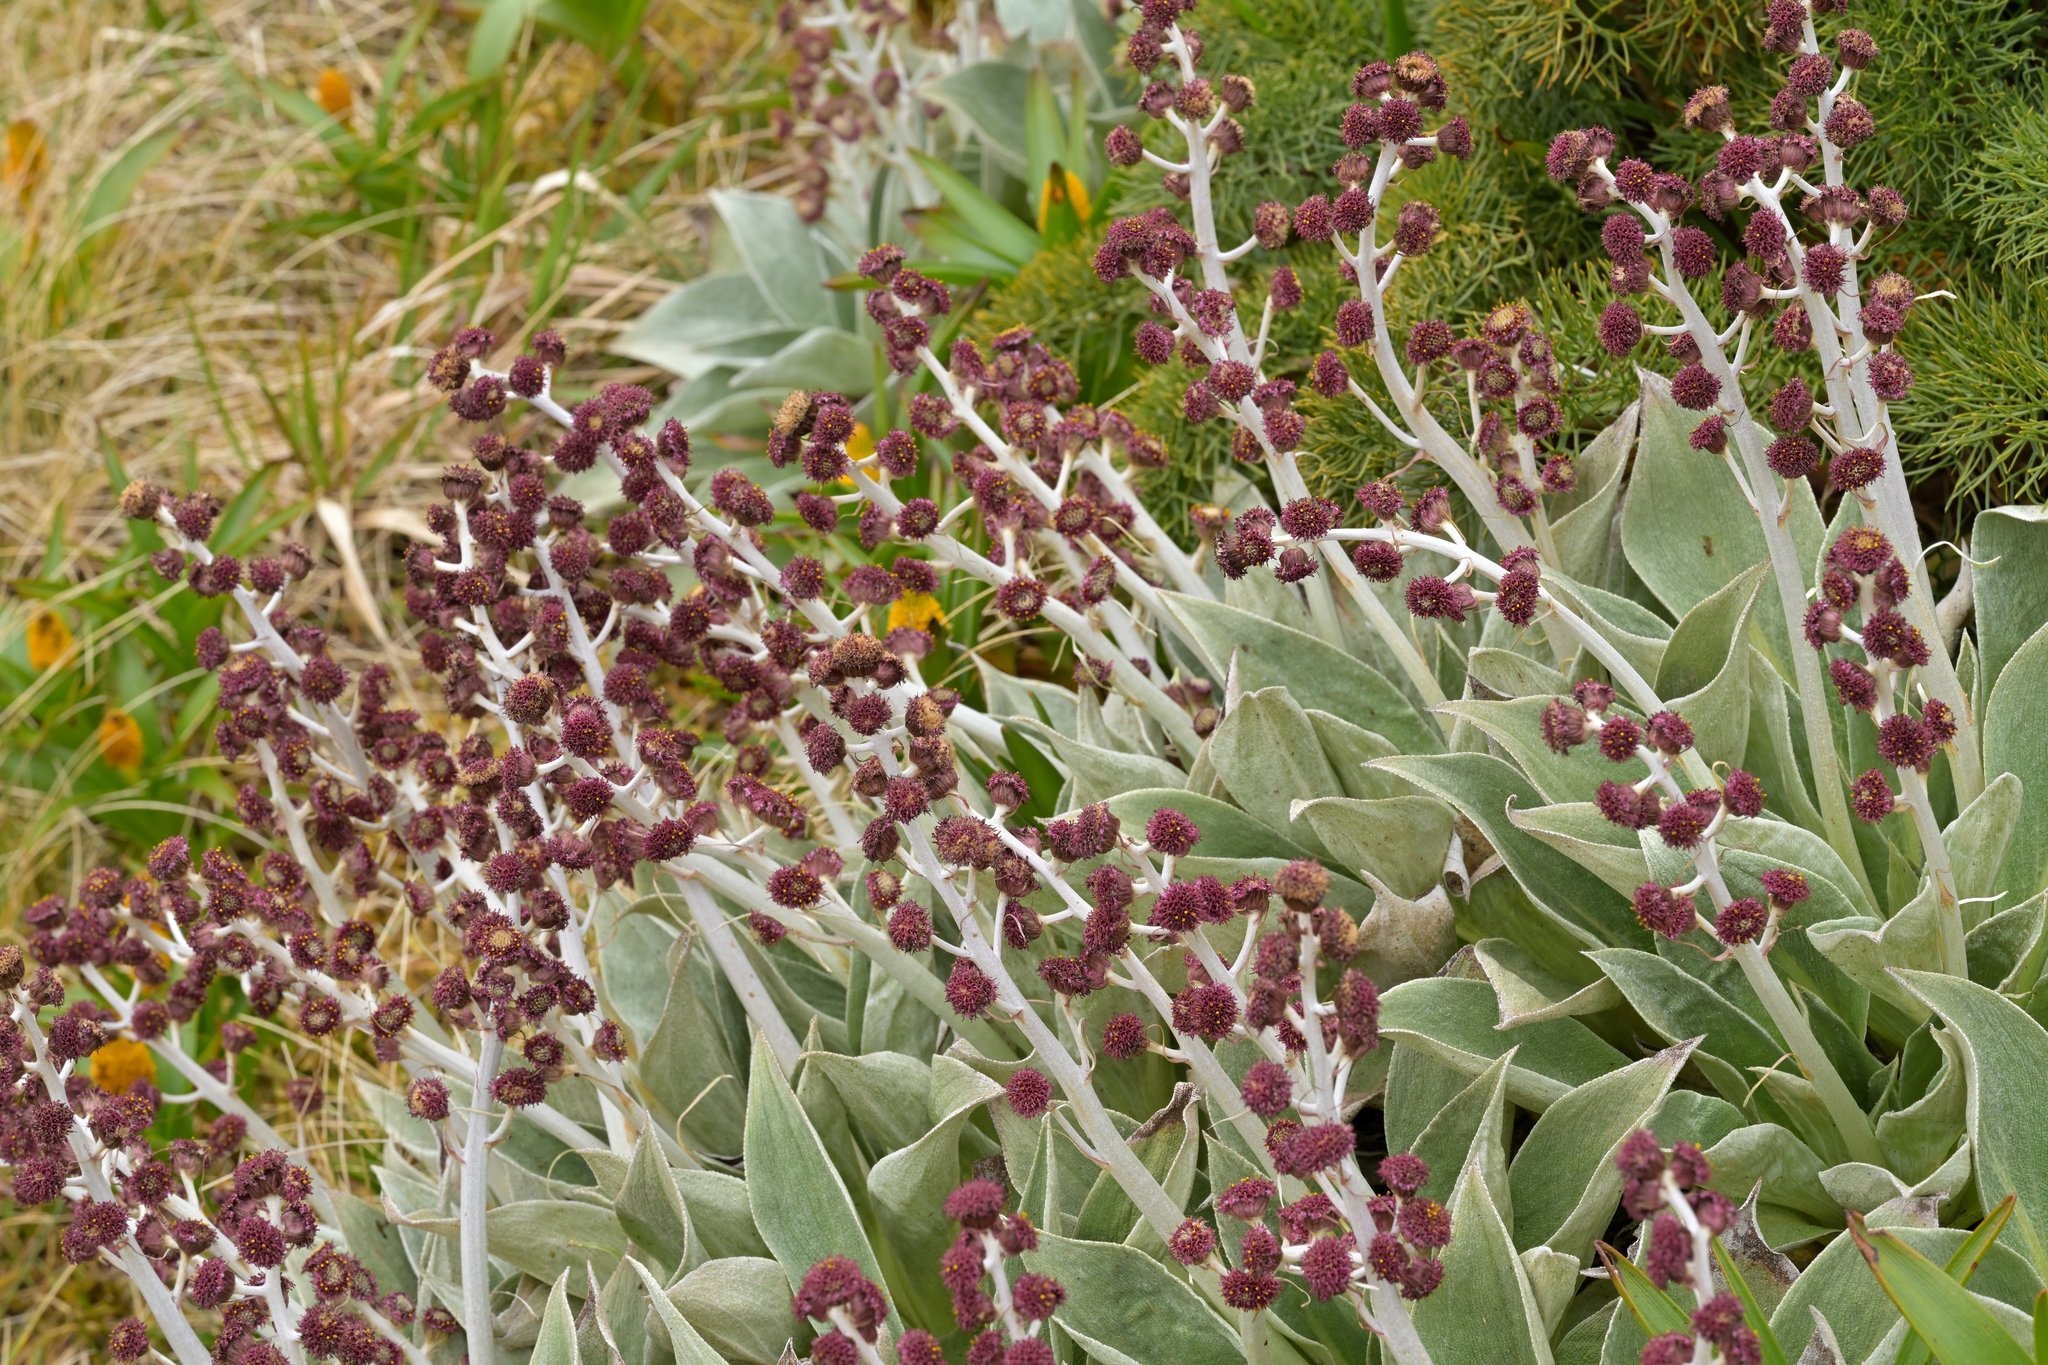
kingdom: Plantae
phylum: Tracheophyta
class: Magnoliopsida
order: Asterales
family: Asteraceae
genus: Pleurophyllum
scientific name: Pleurophyllum hookeri
